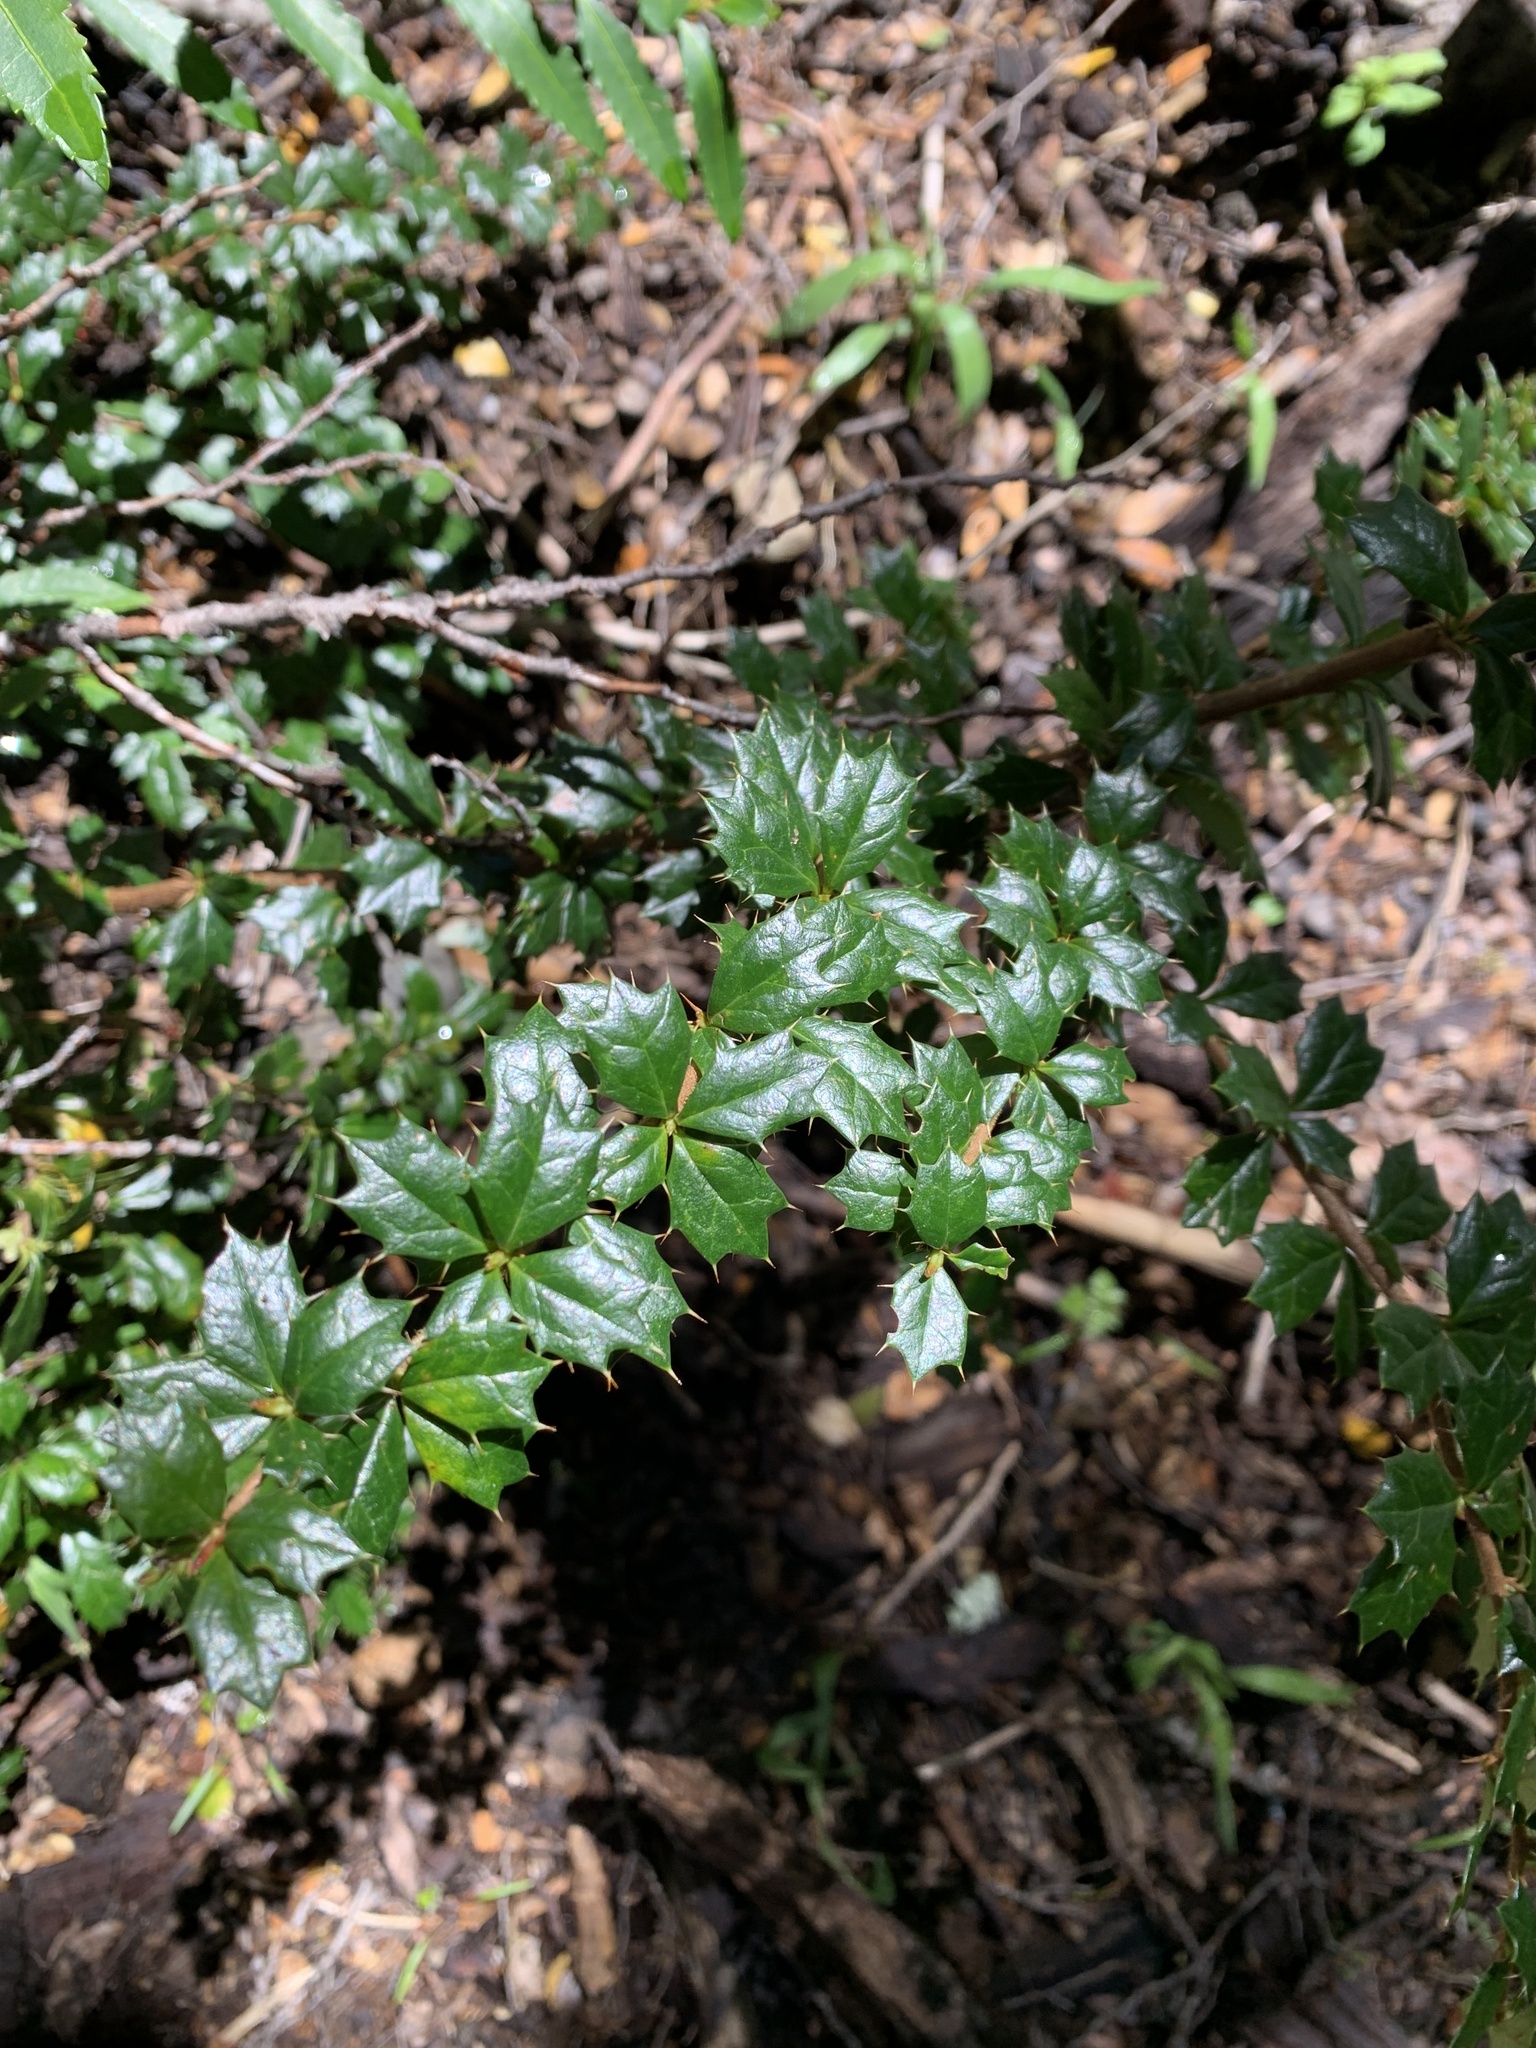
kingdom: Plantae
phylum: Tracheophyta
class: Magnoliopsida
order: Ranunculales
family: Berberidaceae
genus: Berberis
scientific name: Berberis darwinii
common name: Darwin's barberry
